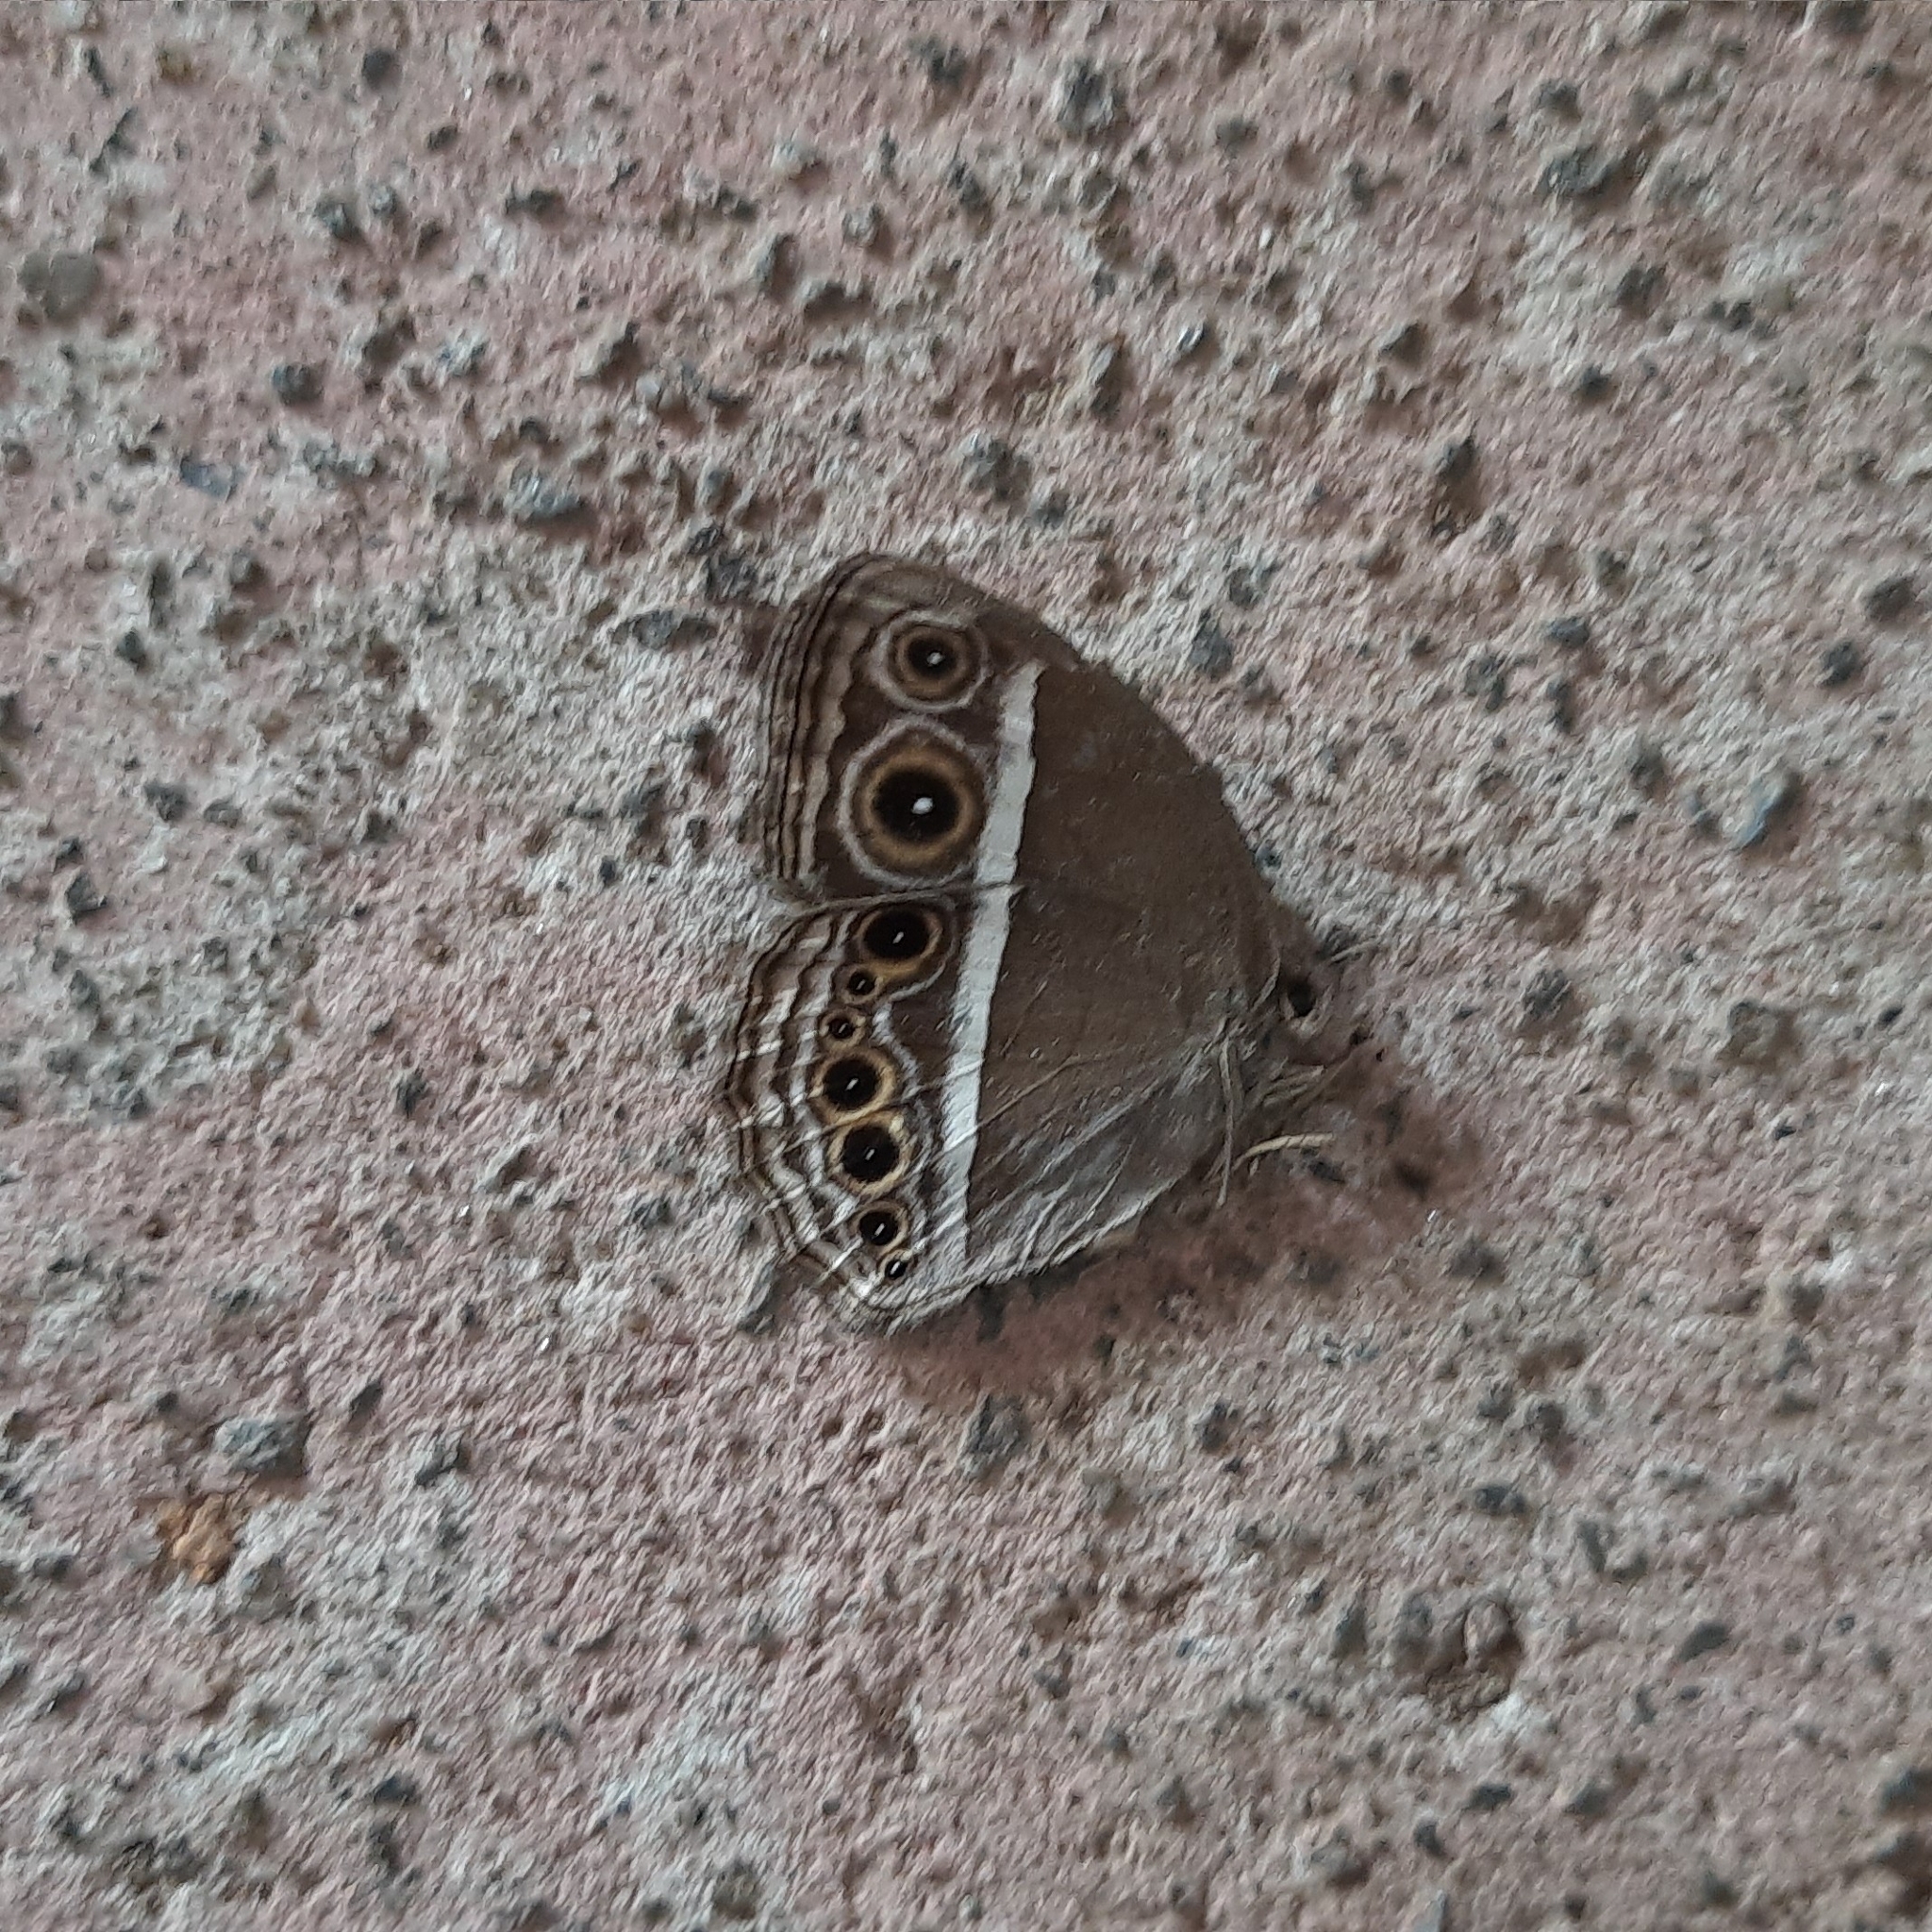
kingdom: Animalia
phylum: Arthropoda
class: Insecta
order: Lepidoptera
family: Nymphalidae
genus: Mycalesis
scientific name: Mycalesis mineus
